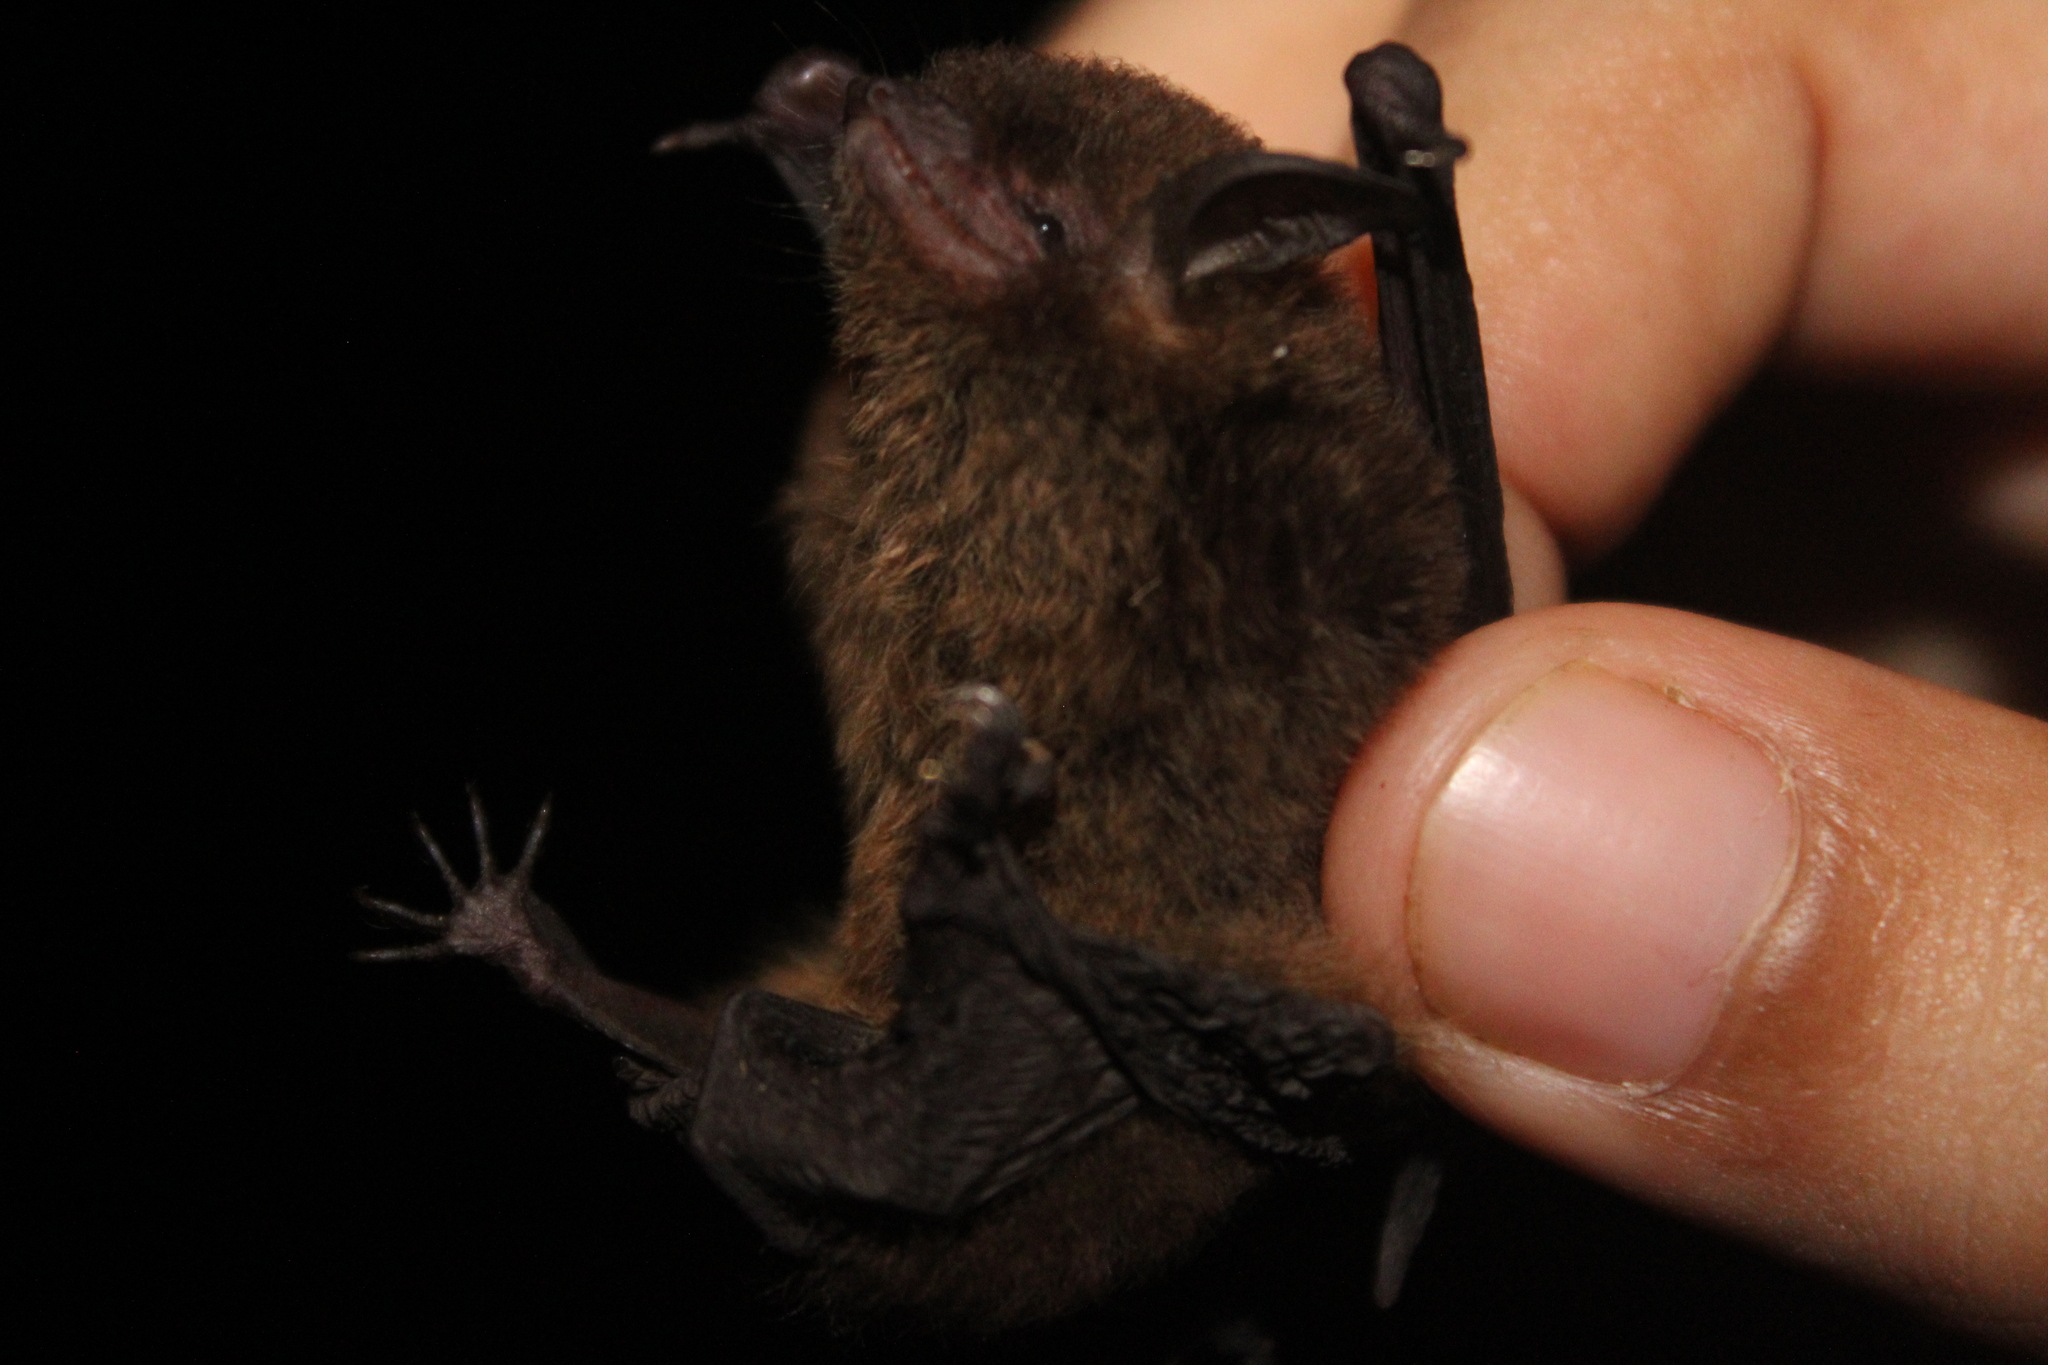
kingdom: Animalia
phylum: Chordata
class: Mammalia
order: Chiroptera
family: Vespertilionidae
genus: Myotis
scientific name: Myotis riparius
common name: Riparian myotis
